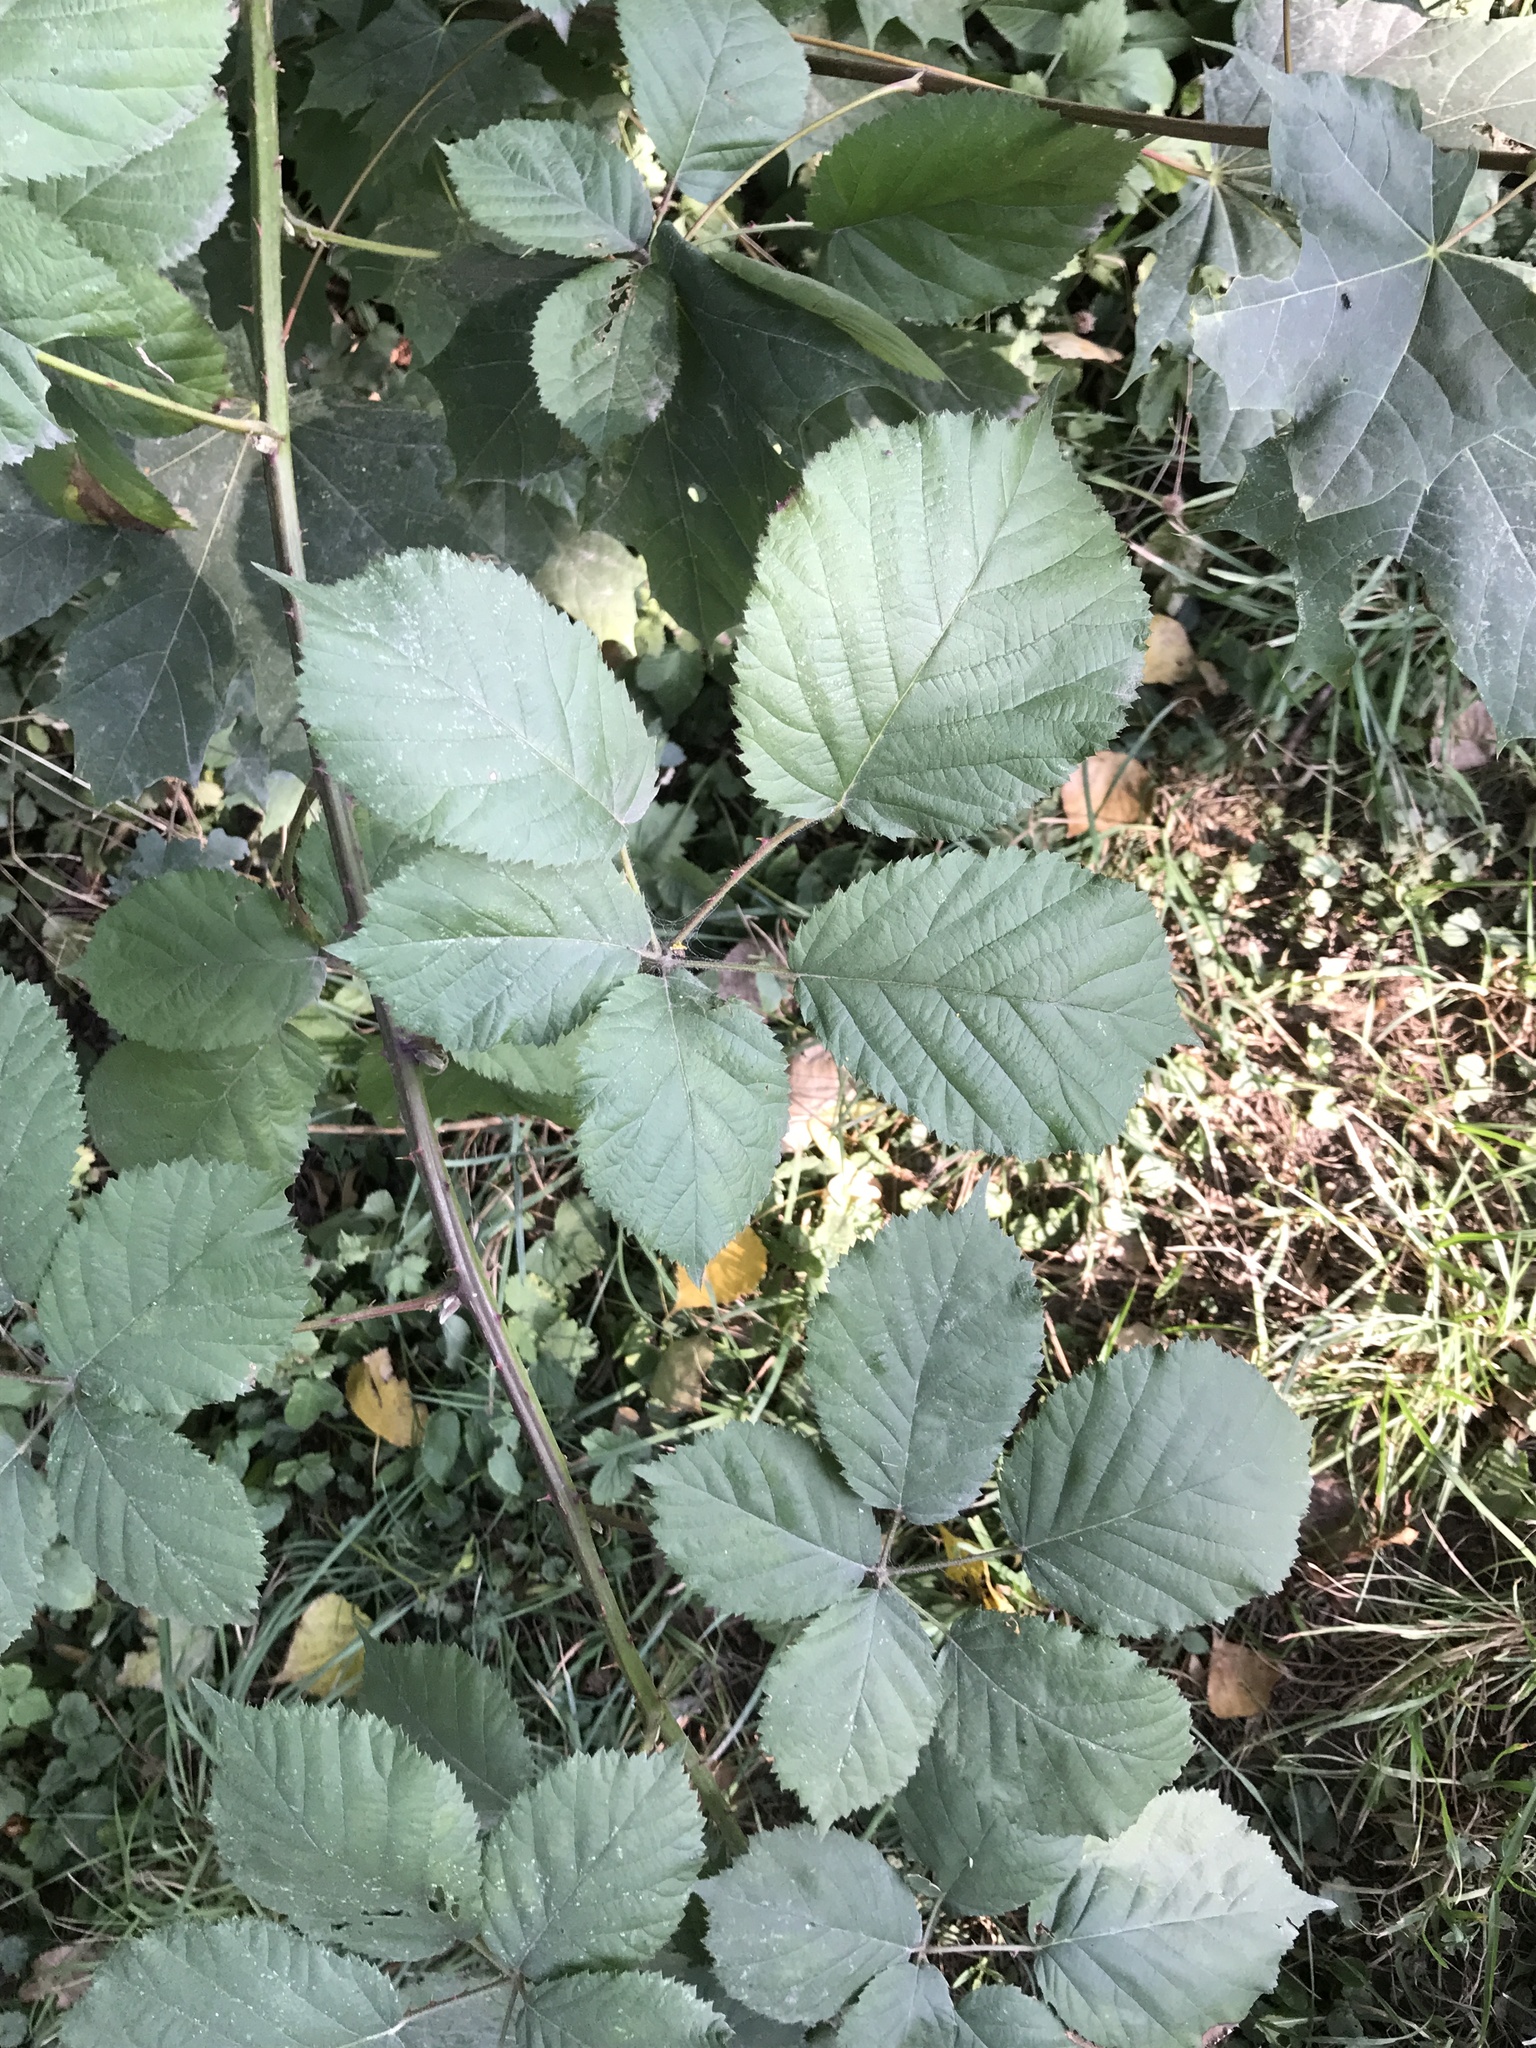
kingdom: Plantae
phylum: Tracheophyta
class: Magnoliopsida
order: Rosales
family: Rosaceae
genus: Rubus
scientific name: Rubus armeniacus
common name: Himalayan blackberry
